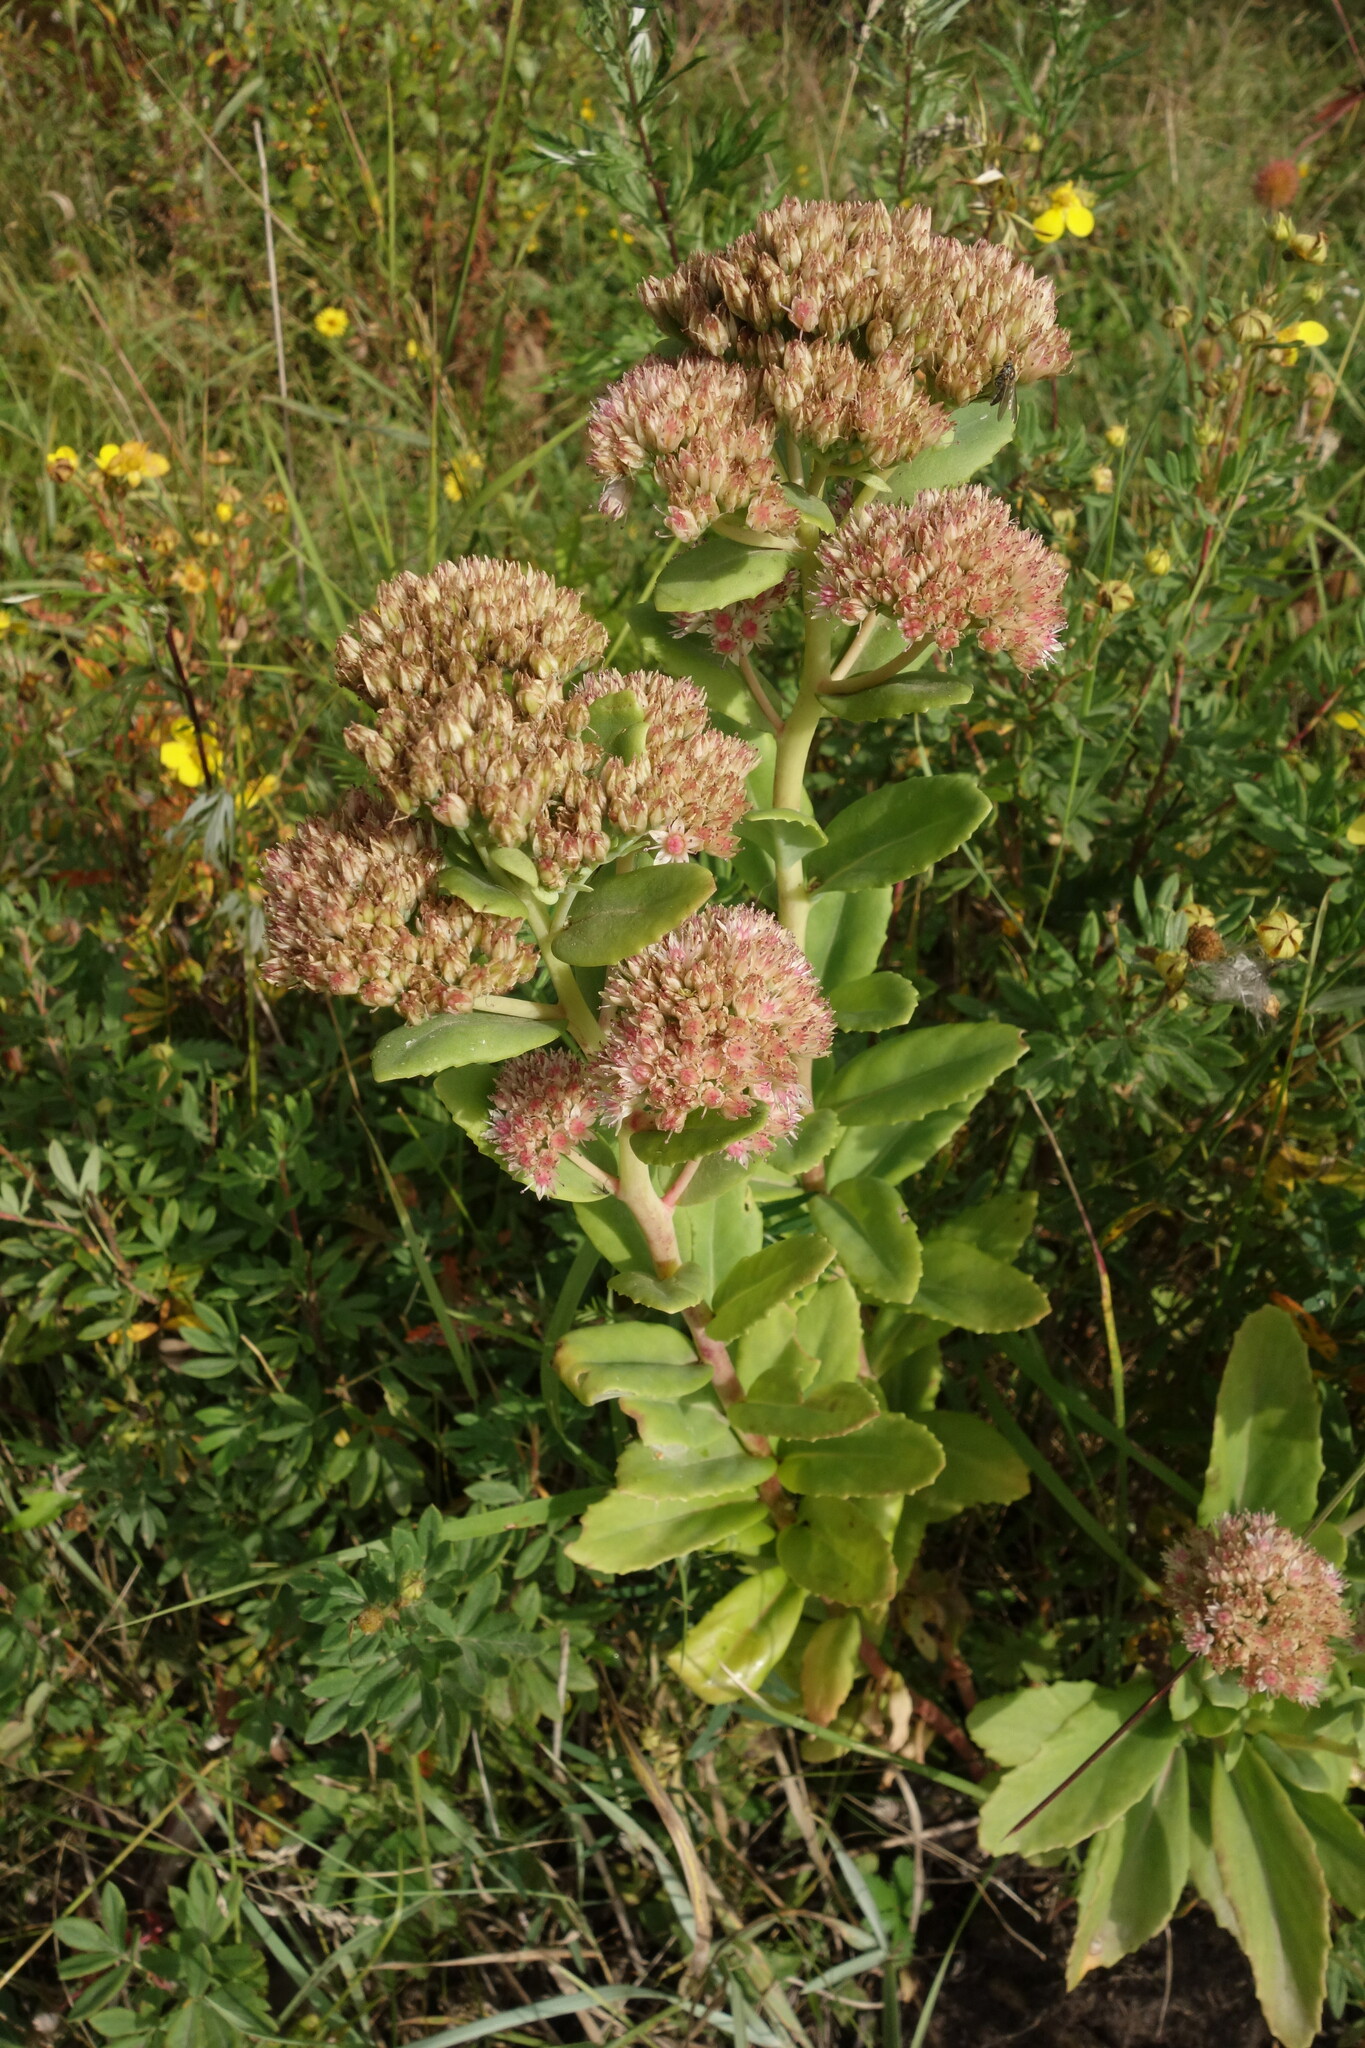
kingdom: Plantae
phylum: Tracheophyta
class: Magnoliopsida
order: Saxifragales
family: Crassulaceae
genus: Hylotelephium
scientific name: Hylotelephium telephium
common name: Live-forever
